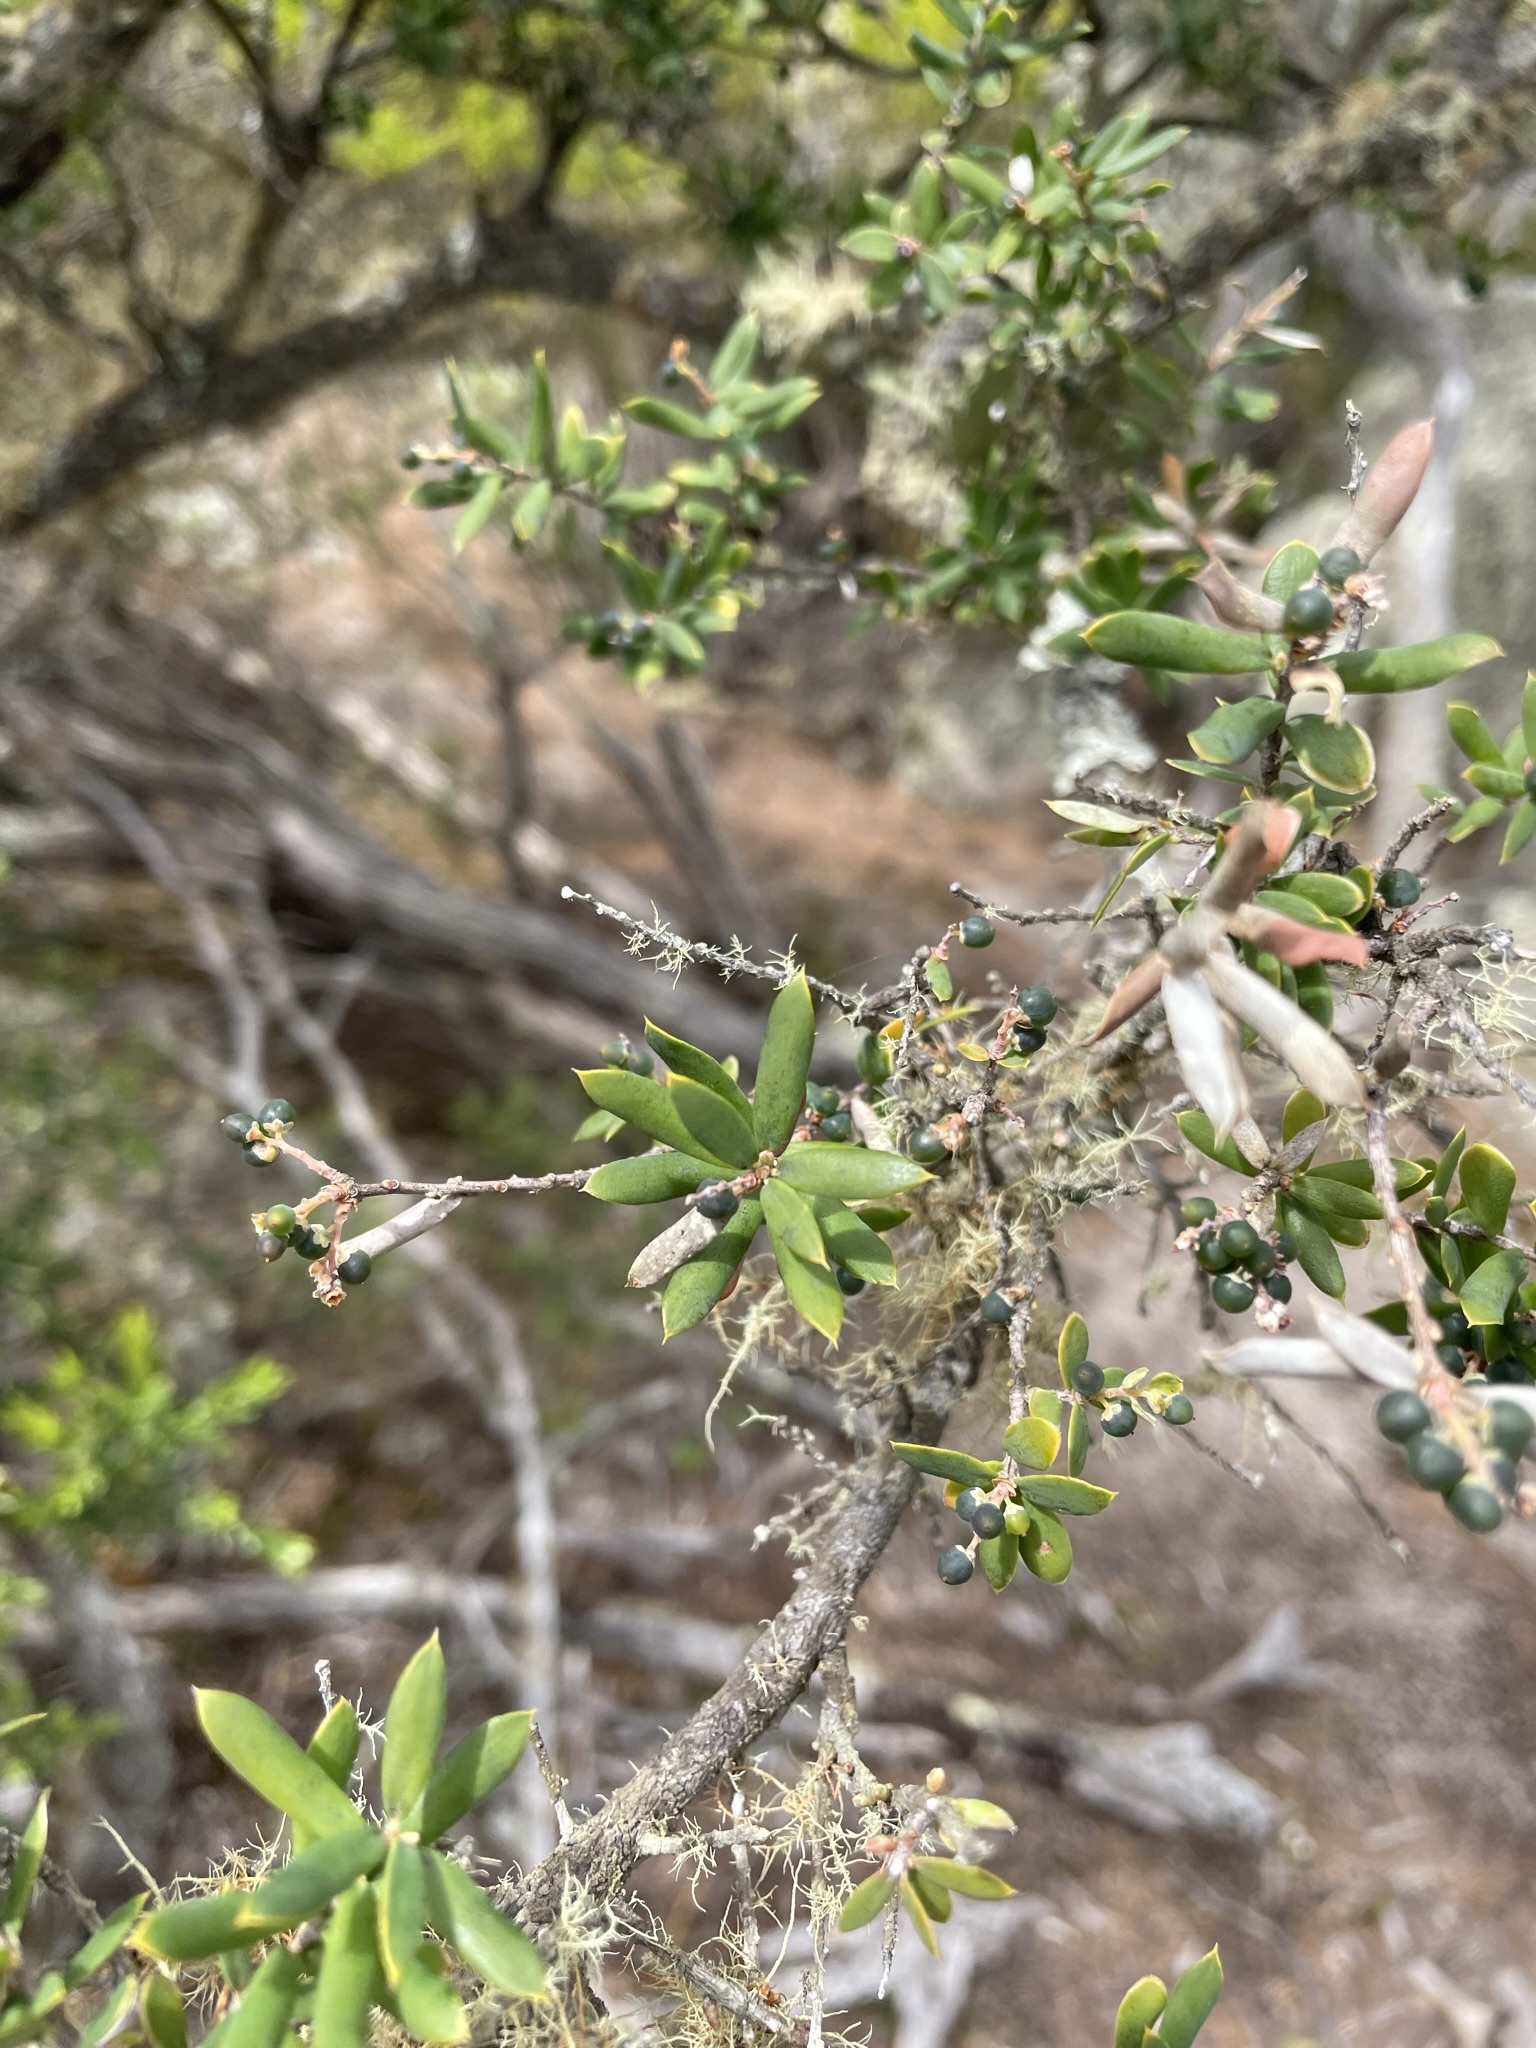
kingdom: Plantae
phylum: Tracheophyta
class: Magnoliopsida
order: Ericales
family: Ericaceae
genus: Monotoca
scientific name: Monotoca elliptica
